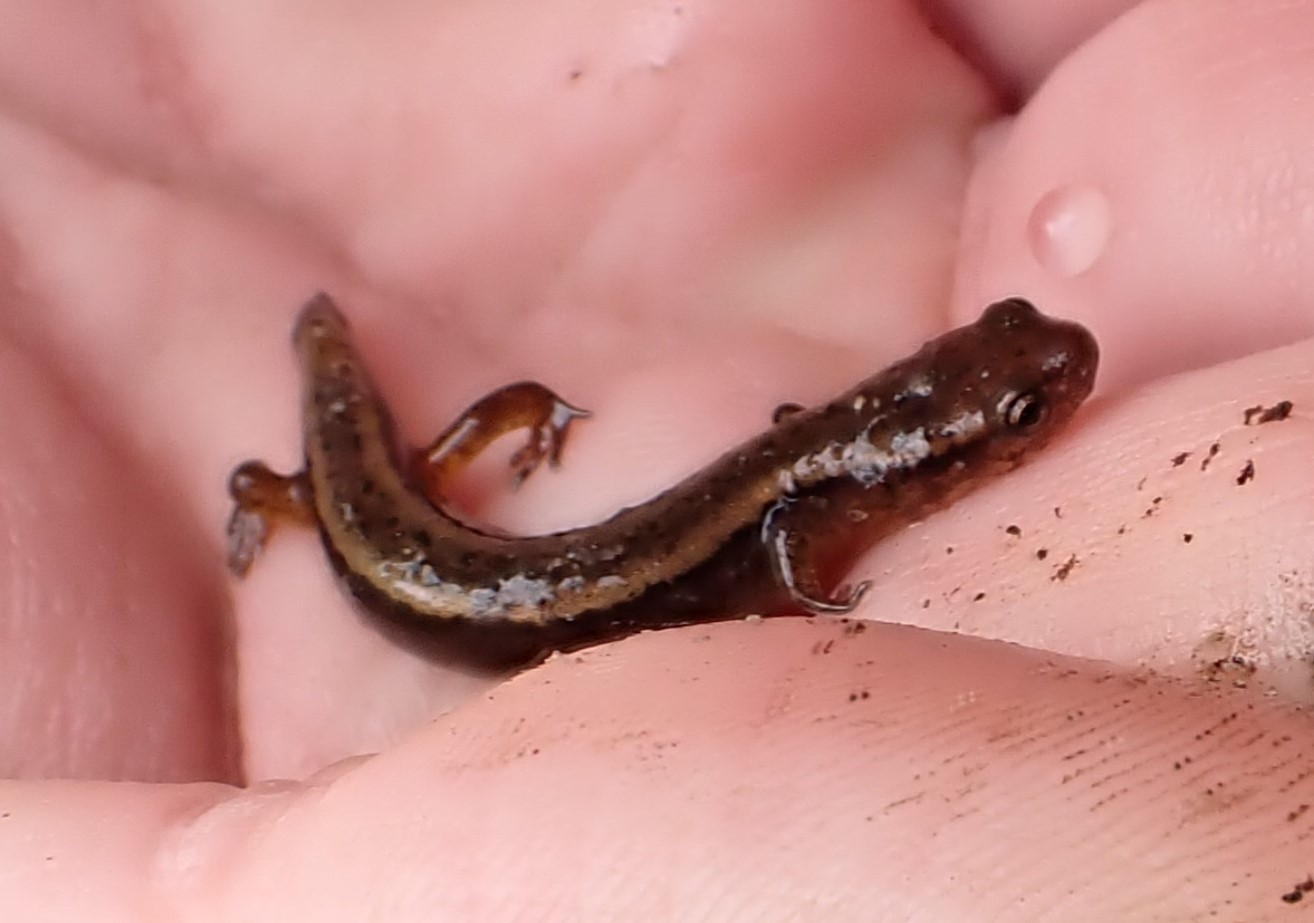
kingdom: Animalia
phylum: Chordata
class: Amphibia
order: Caudata
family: Plethodontidae
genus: Eurycea
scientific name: Eurycea bislineata
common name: Northern two-lined salamander
